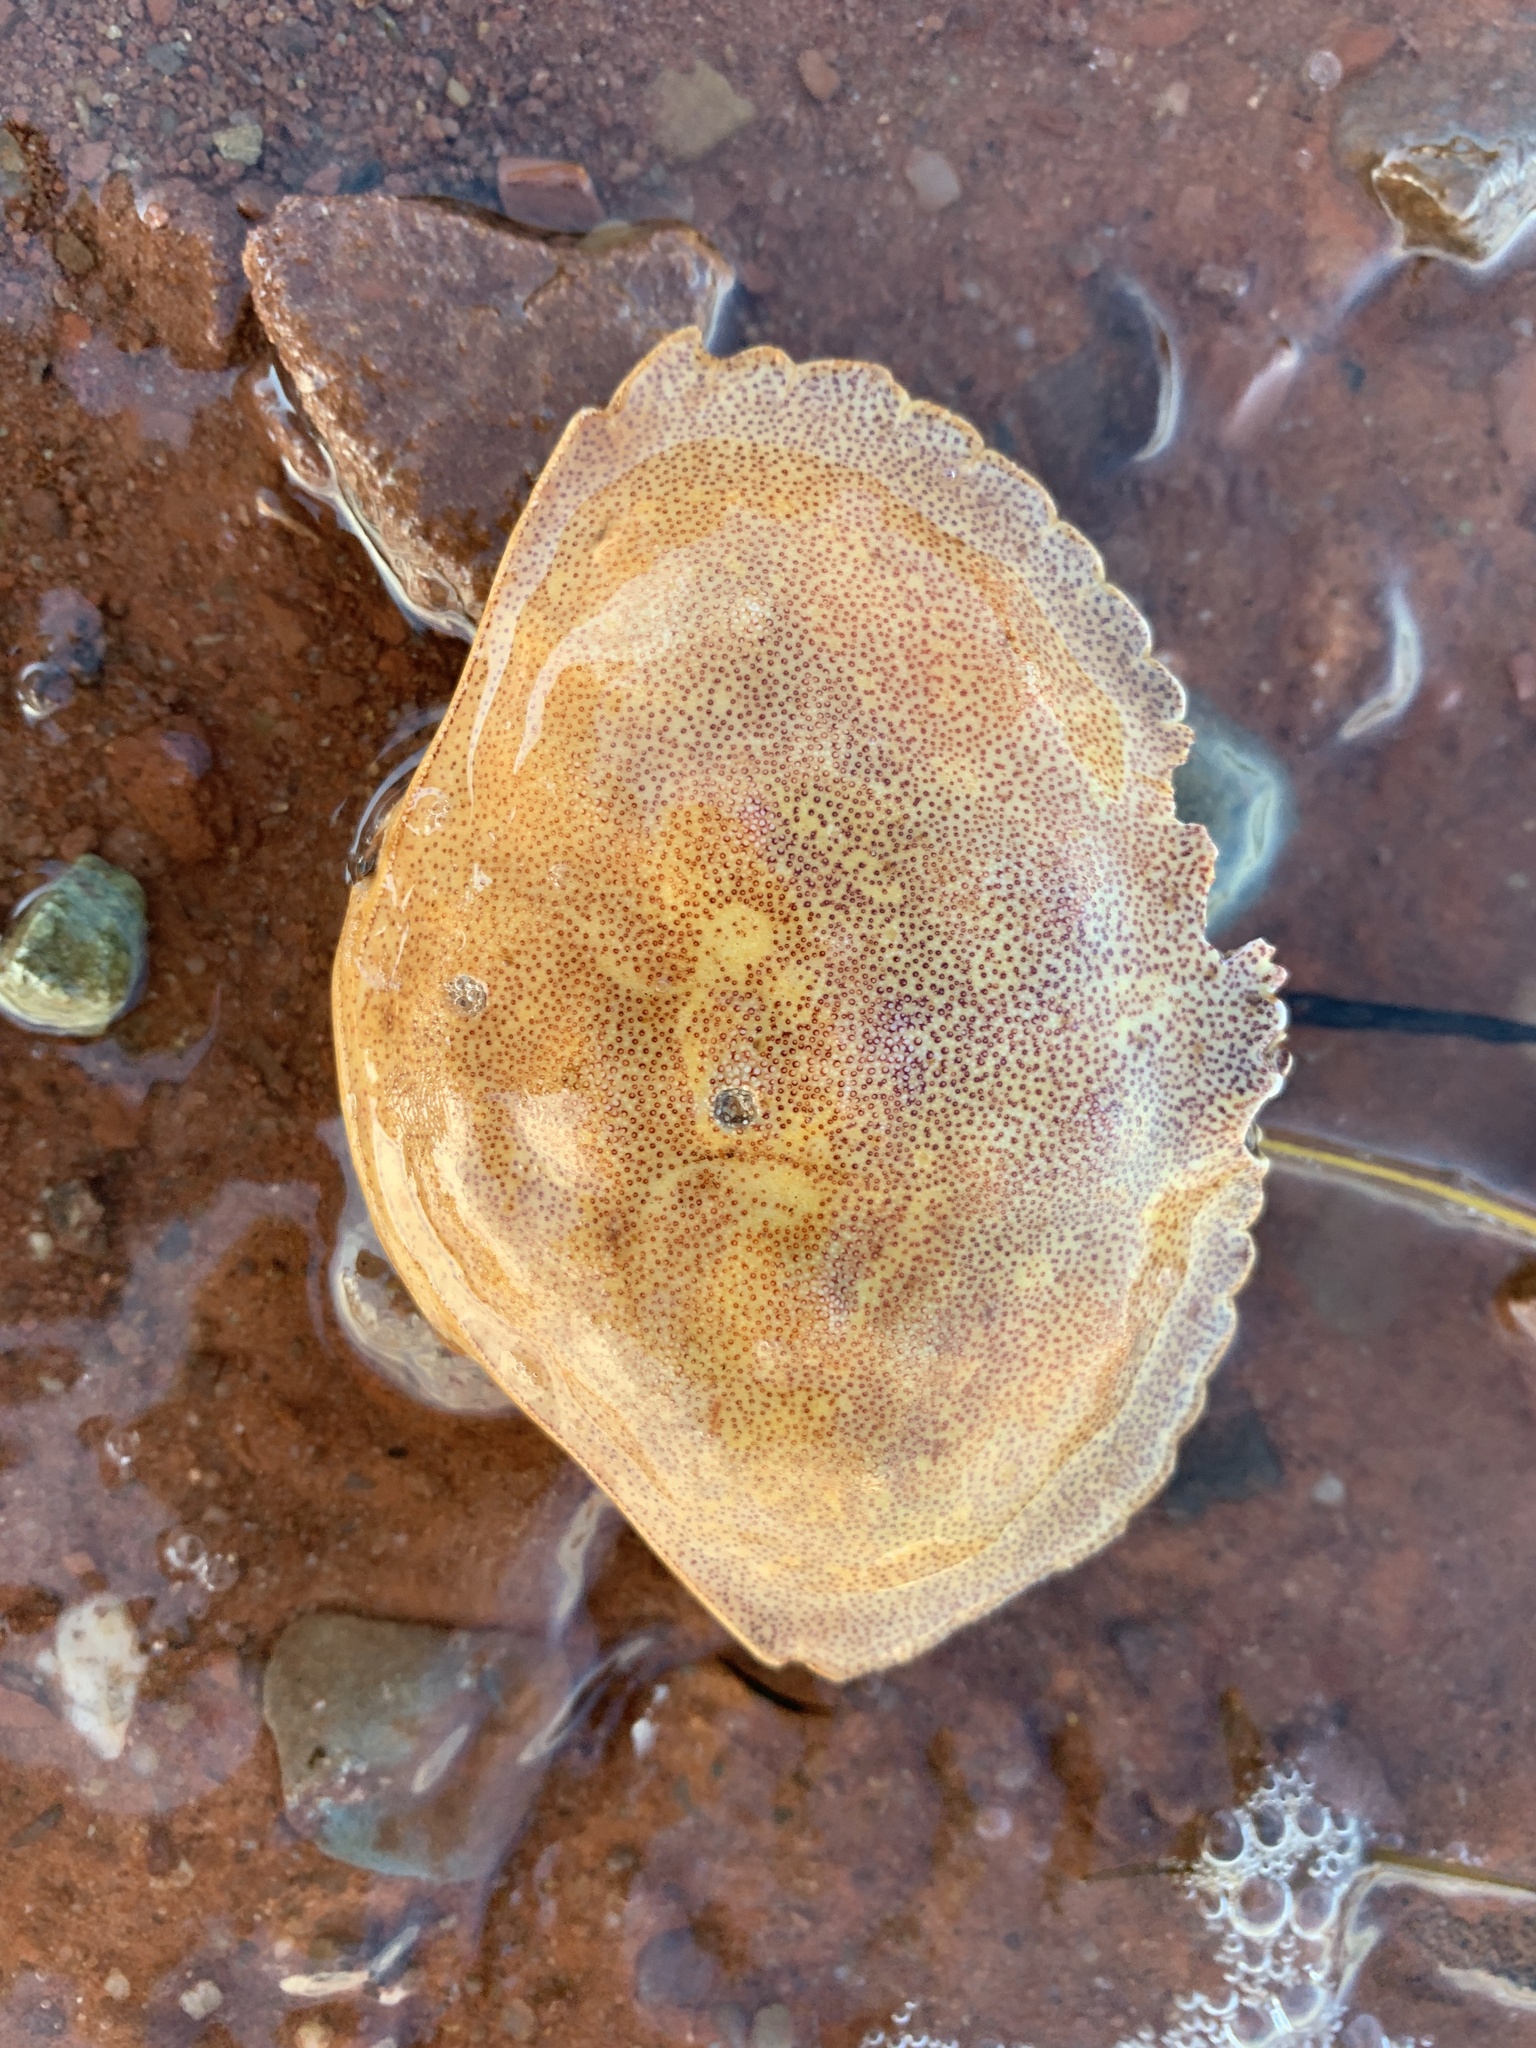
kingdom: Animalia
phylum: Arthropoda
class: Malacostraca
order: Decapoda
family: Cancridae
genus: Cancer
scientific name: Cancer irroratus
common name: Atlantic rock crab
